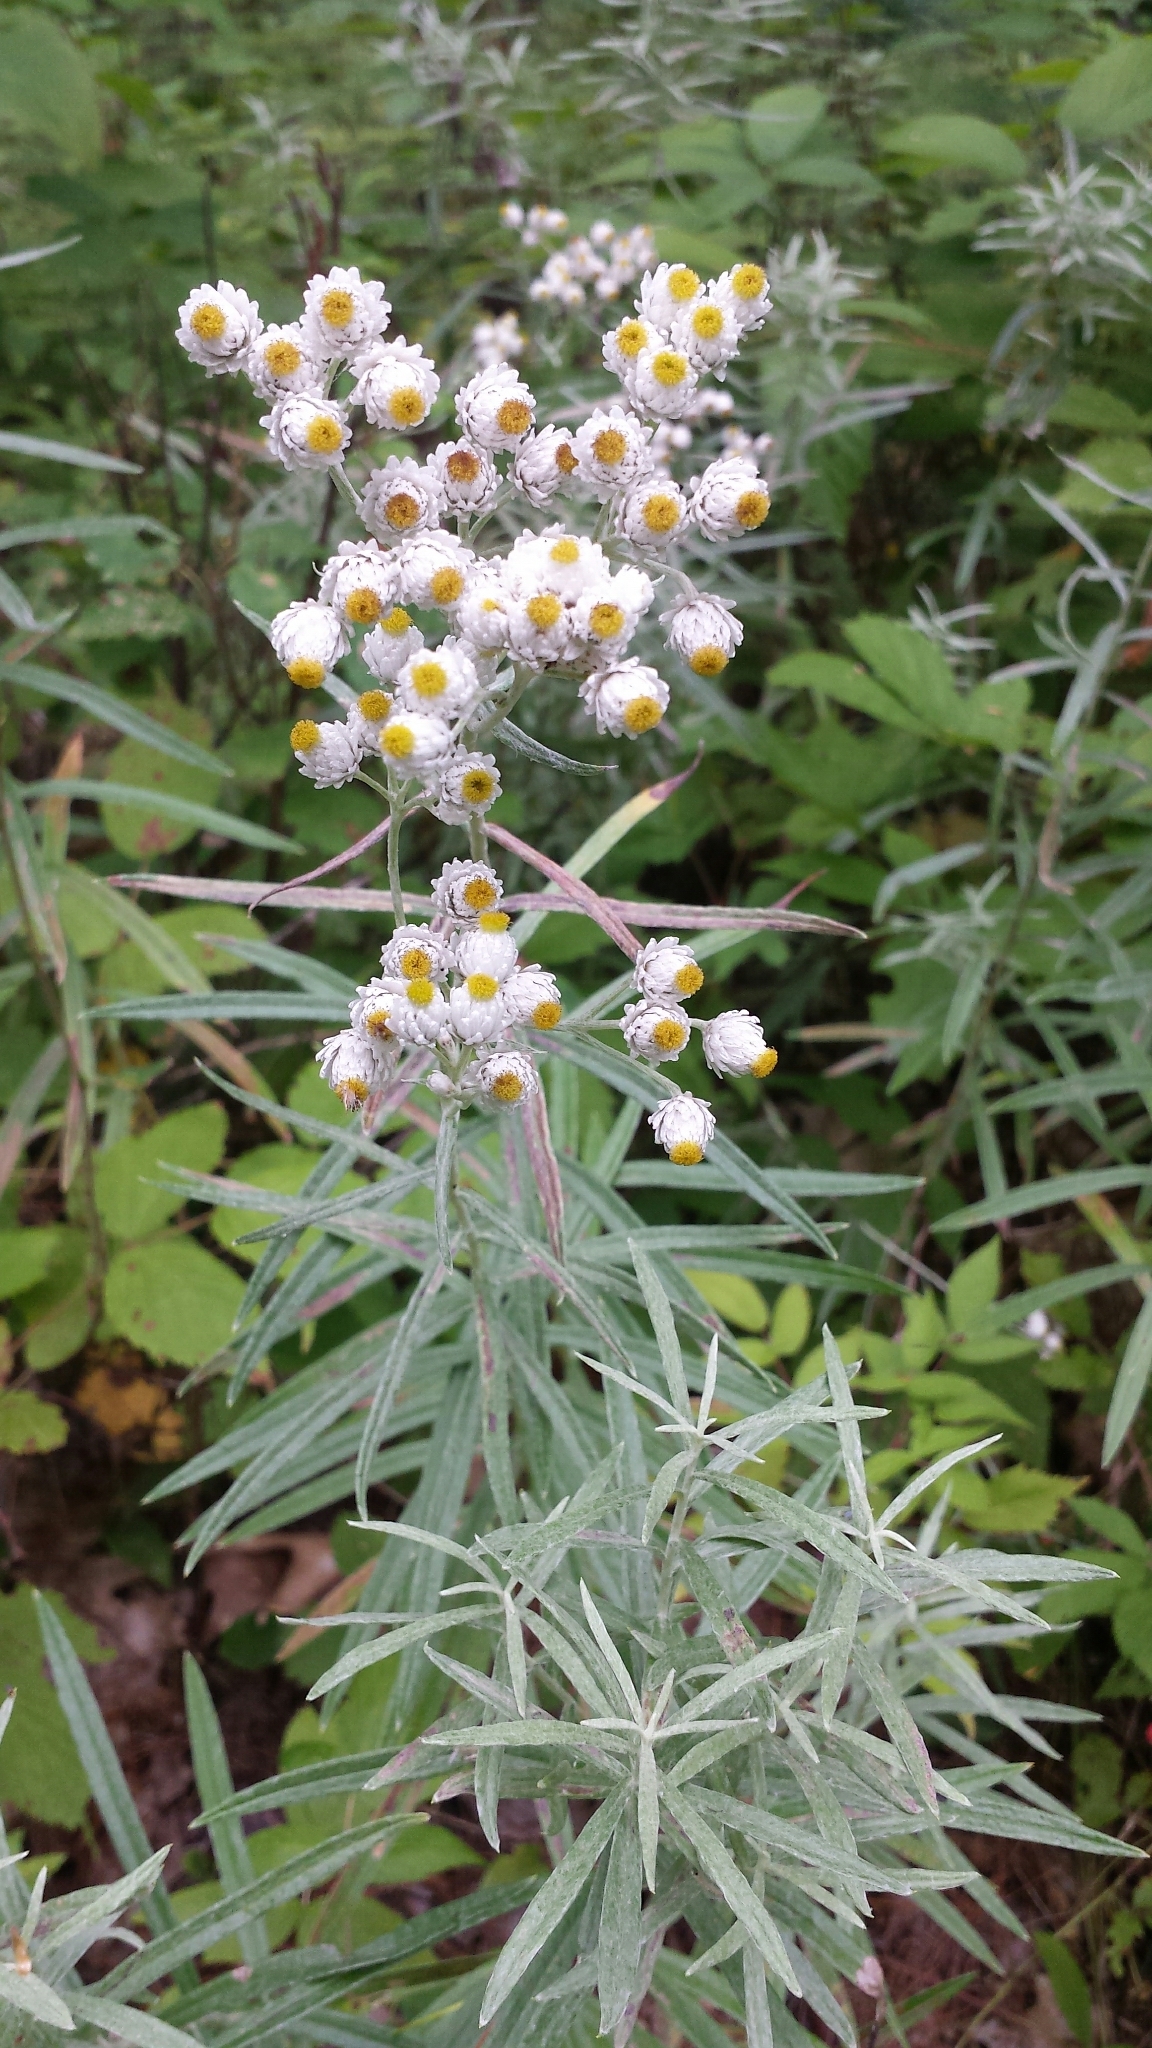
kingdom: Plantae
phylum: Tracheophyta
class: Magnoliopsida
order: Asterales
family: Asteraceae
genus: Anaphalis
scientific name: Anaphalis margaritacea
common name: Pearly everlasting
